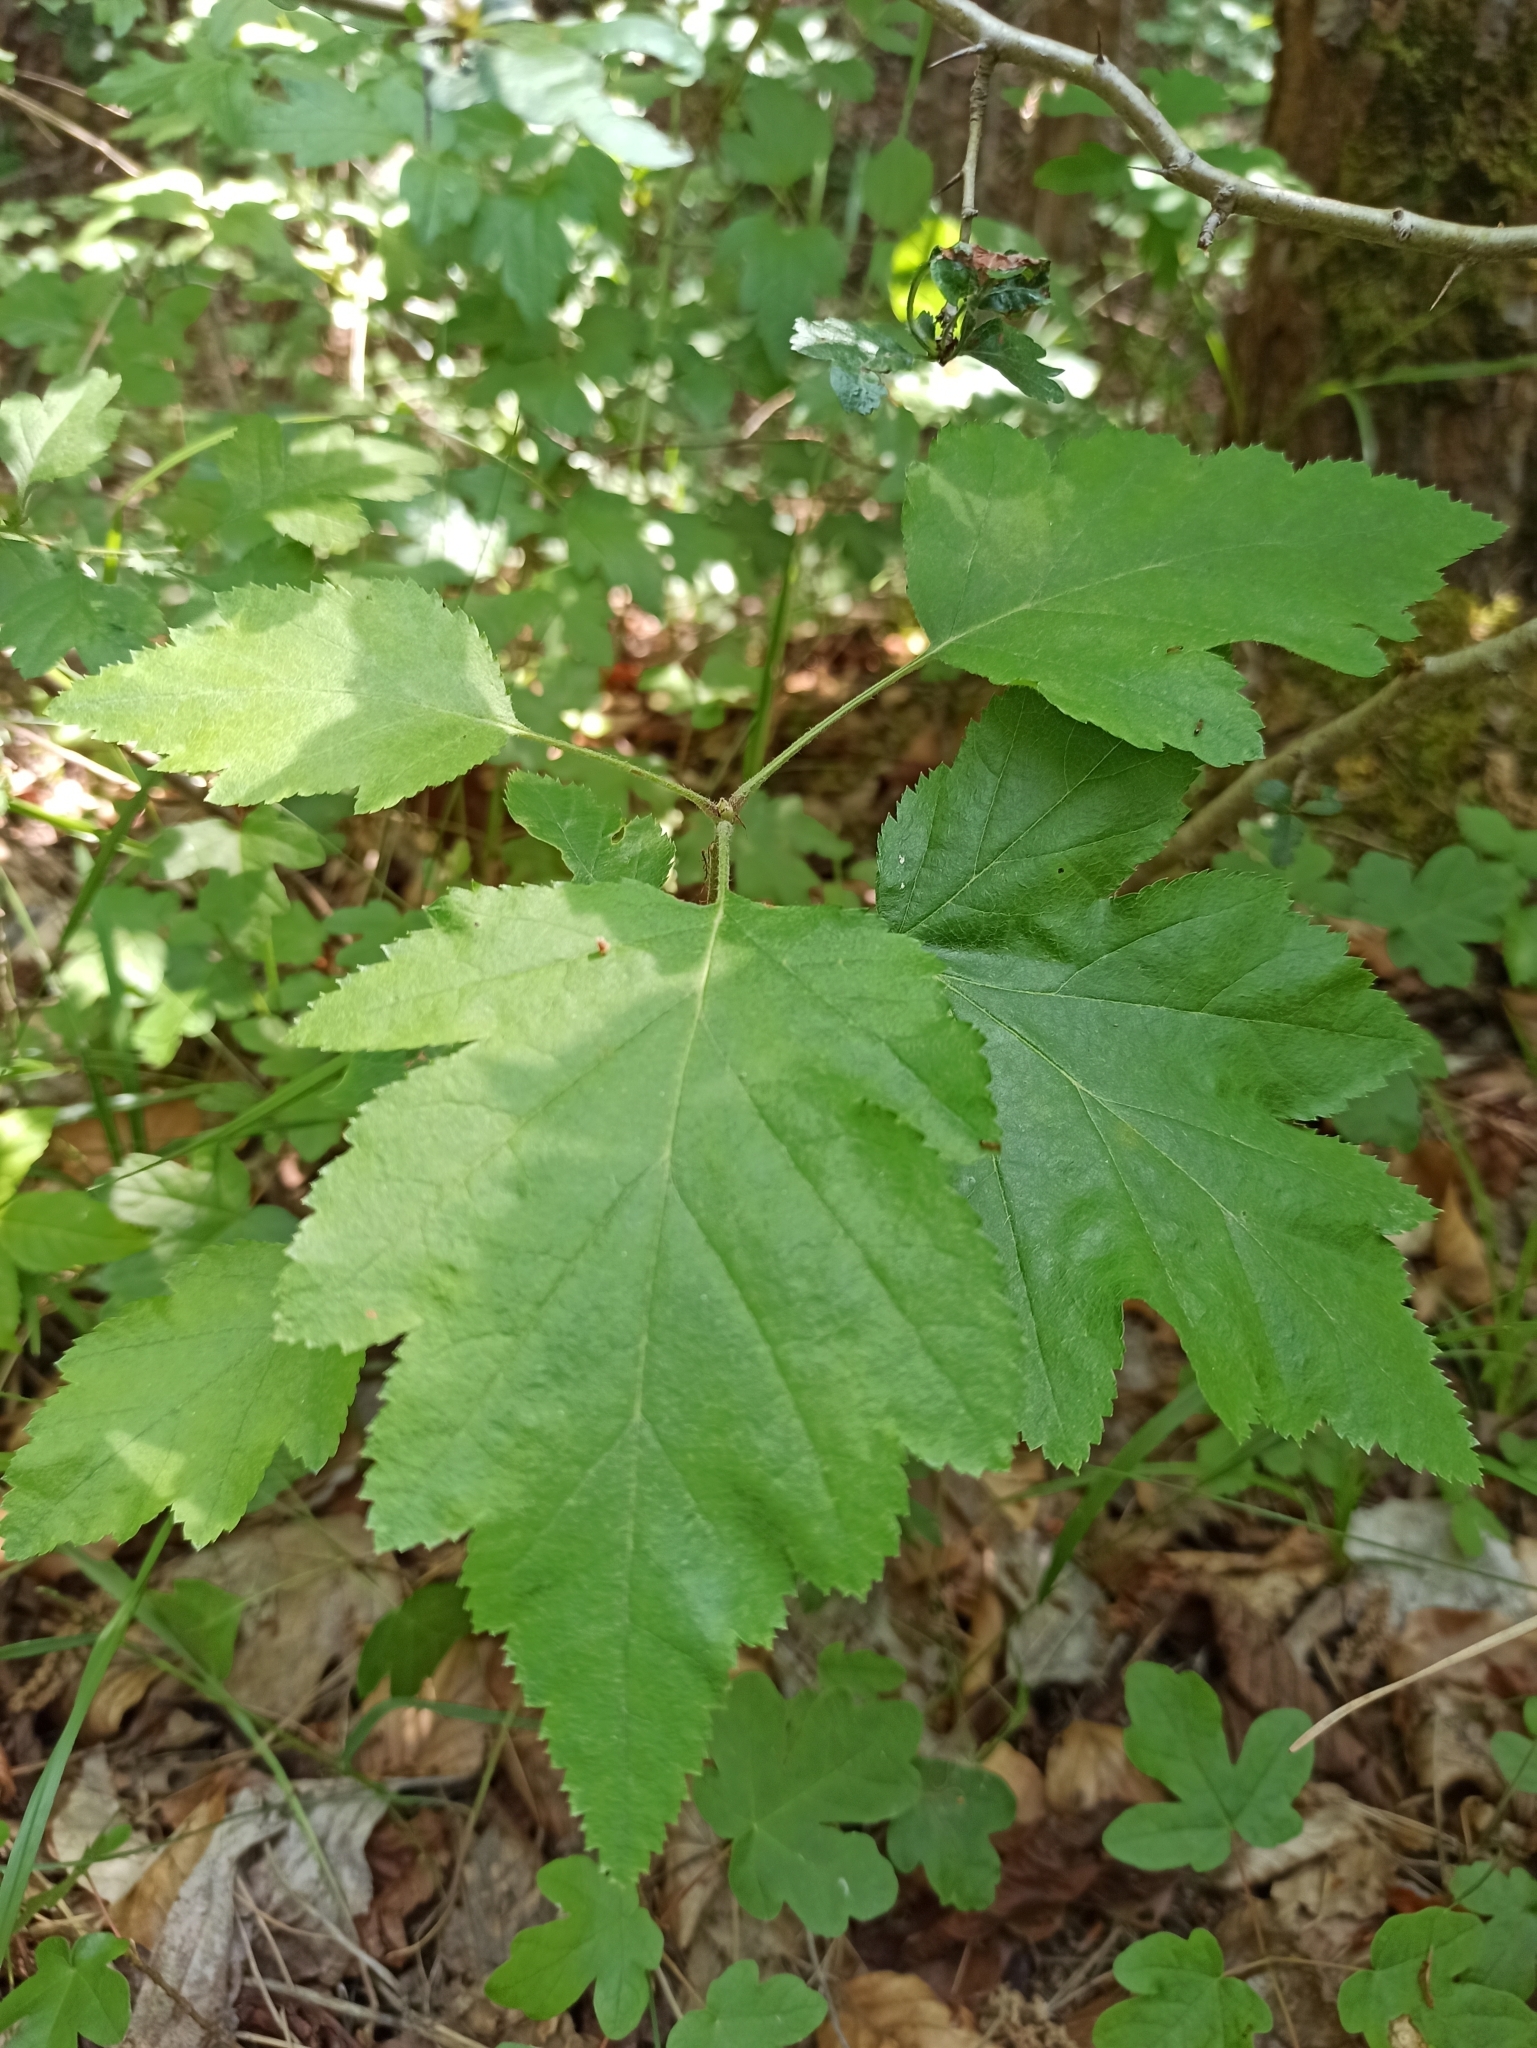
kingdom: Plantae
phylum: Tracheophyta
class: Magnoliopsida
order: Rosales
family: Rosaceae
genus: Torminalis
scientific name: Torminalis glaberrima
